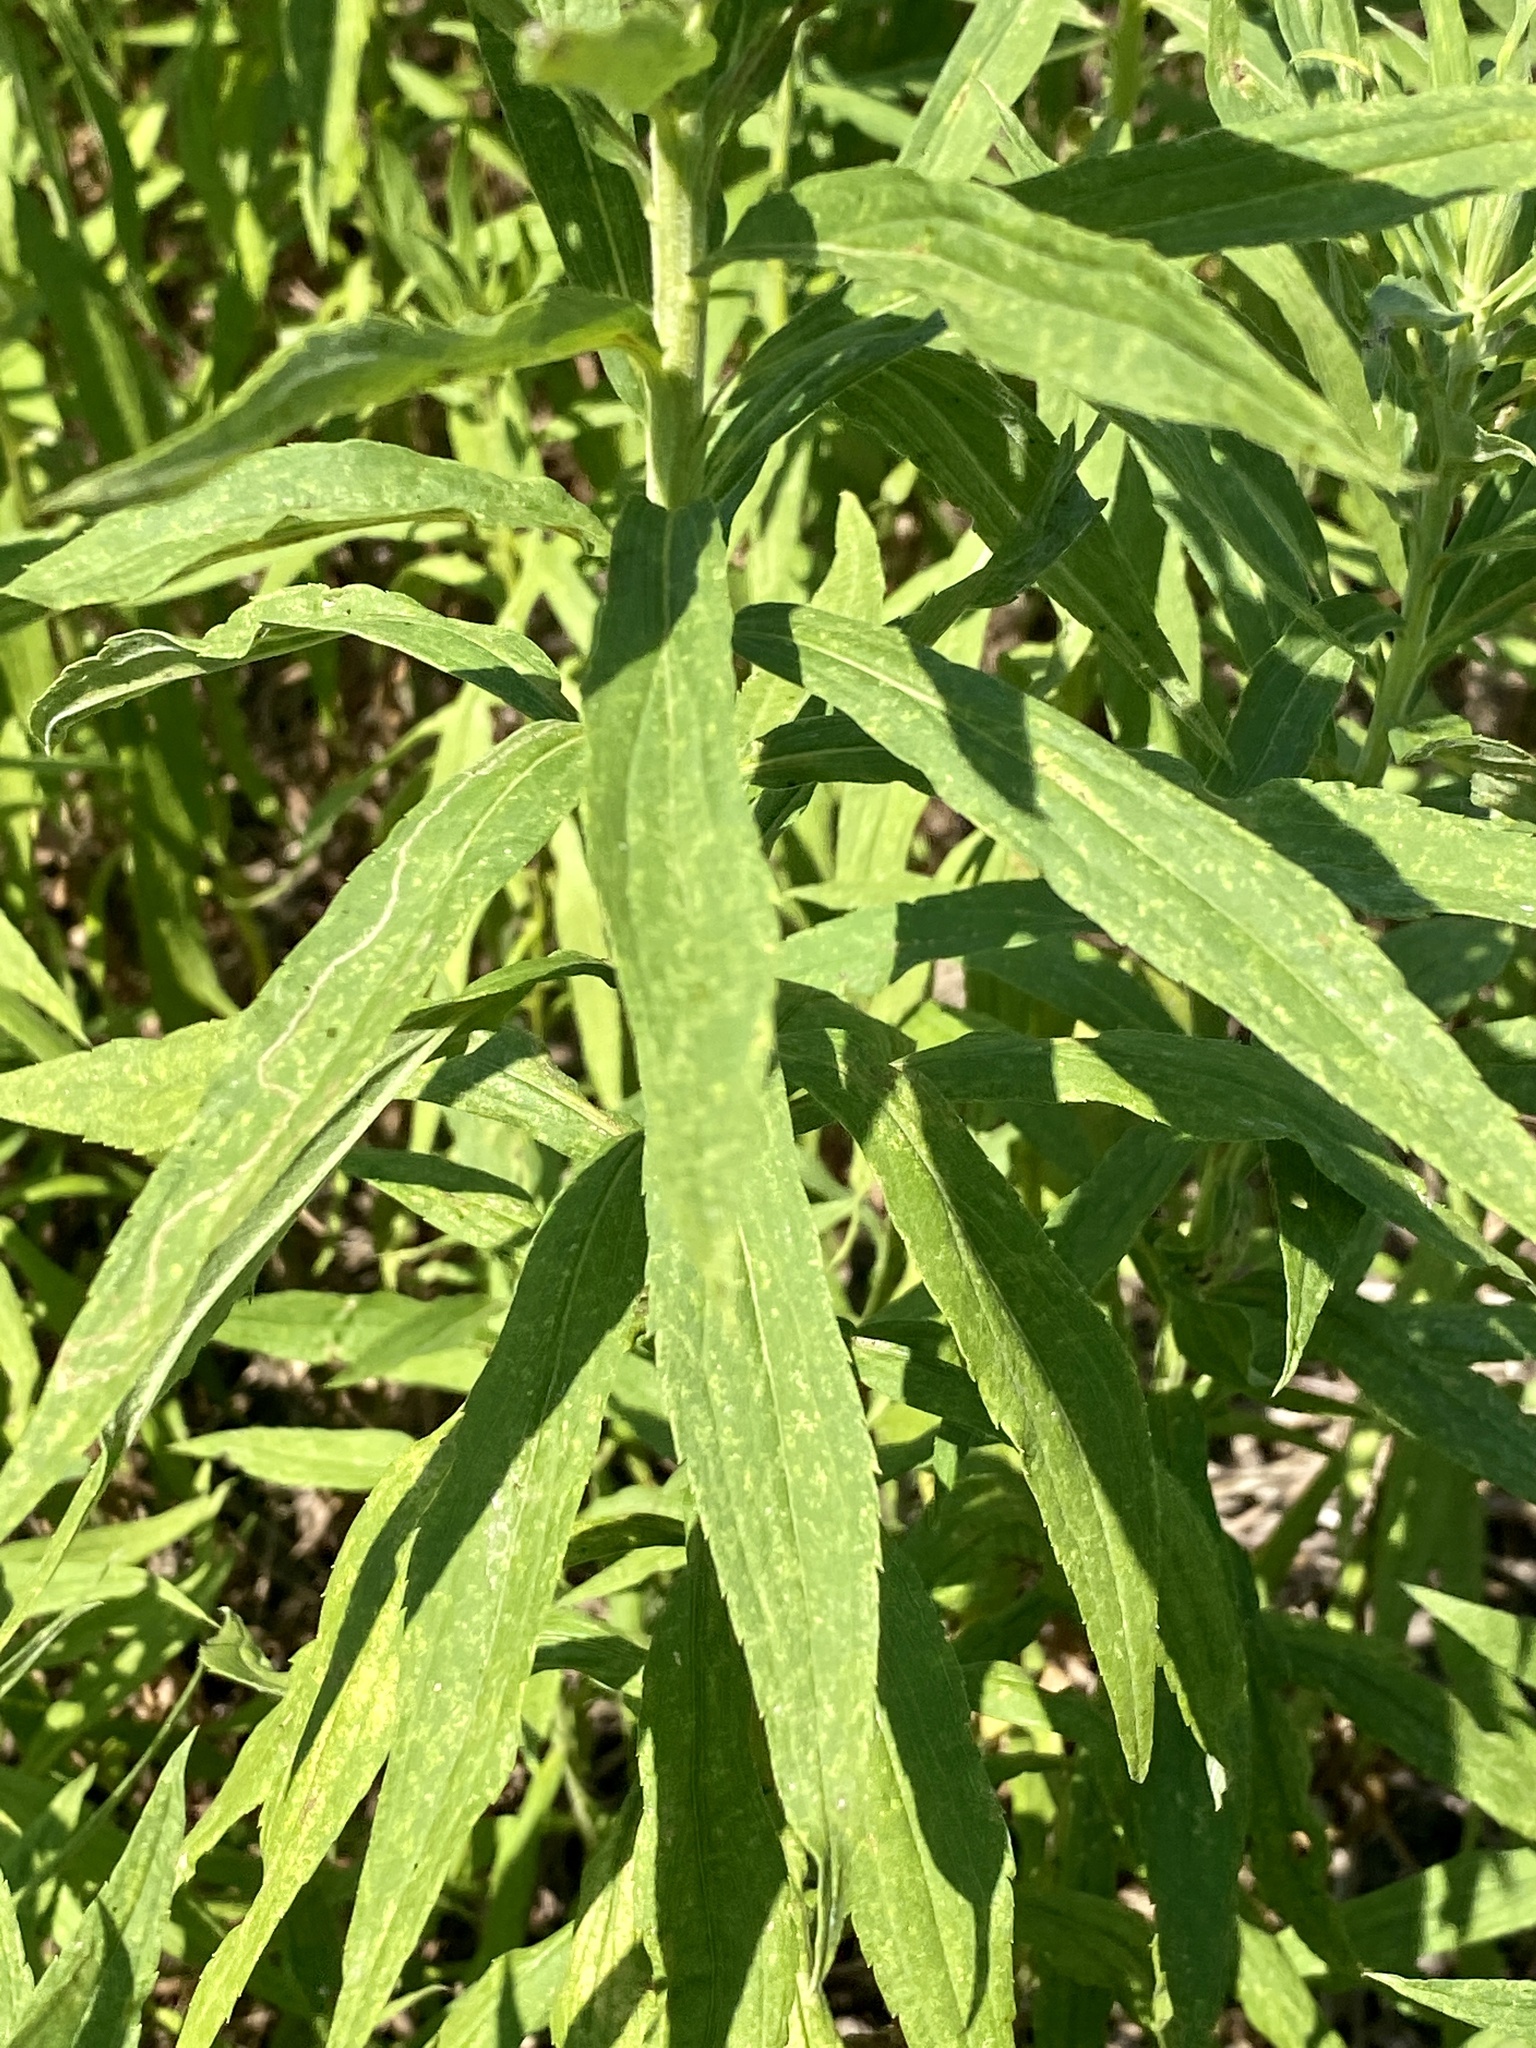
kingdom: Plantae
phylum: Tracheophyta
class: Magnoliopsida
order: Asterales
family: Asteraceae
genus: Solidago
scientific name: Solidago altissima
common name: Late goldenrod
